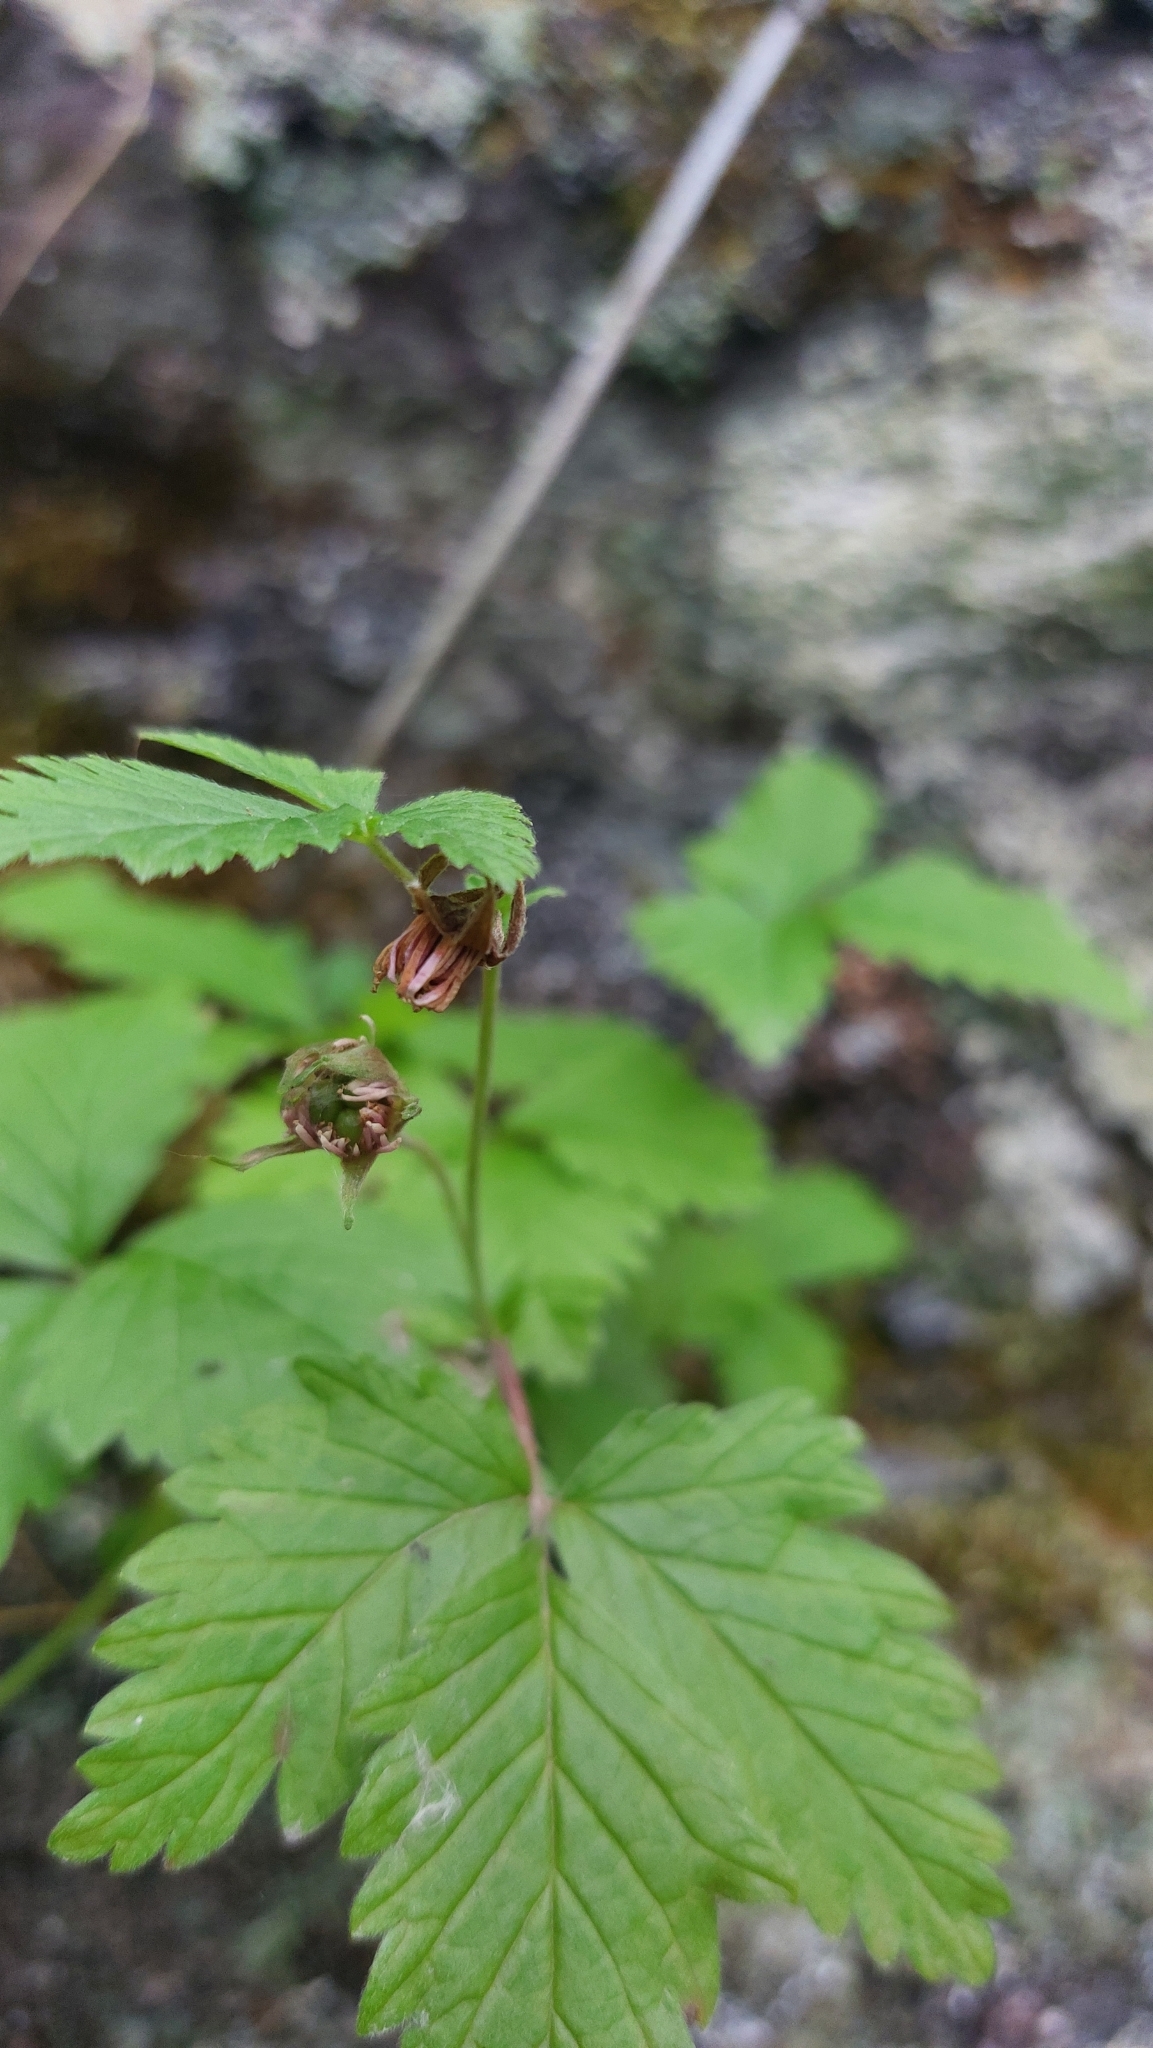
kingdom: Plantae
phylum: Tracheophyta
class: Magnoliopsida
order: Rosales
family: Rosaceae
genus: Rubus
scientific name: Rubus arcticus
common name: Arctic bramble
